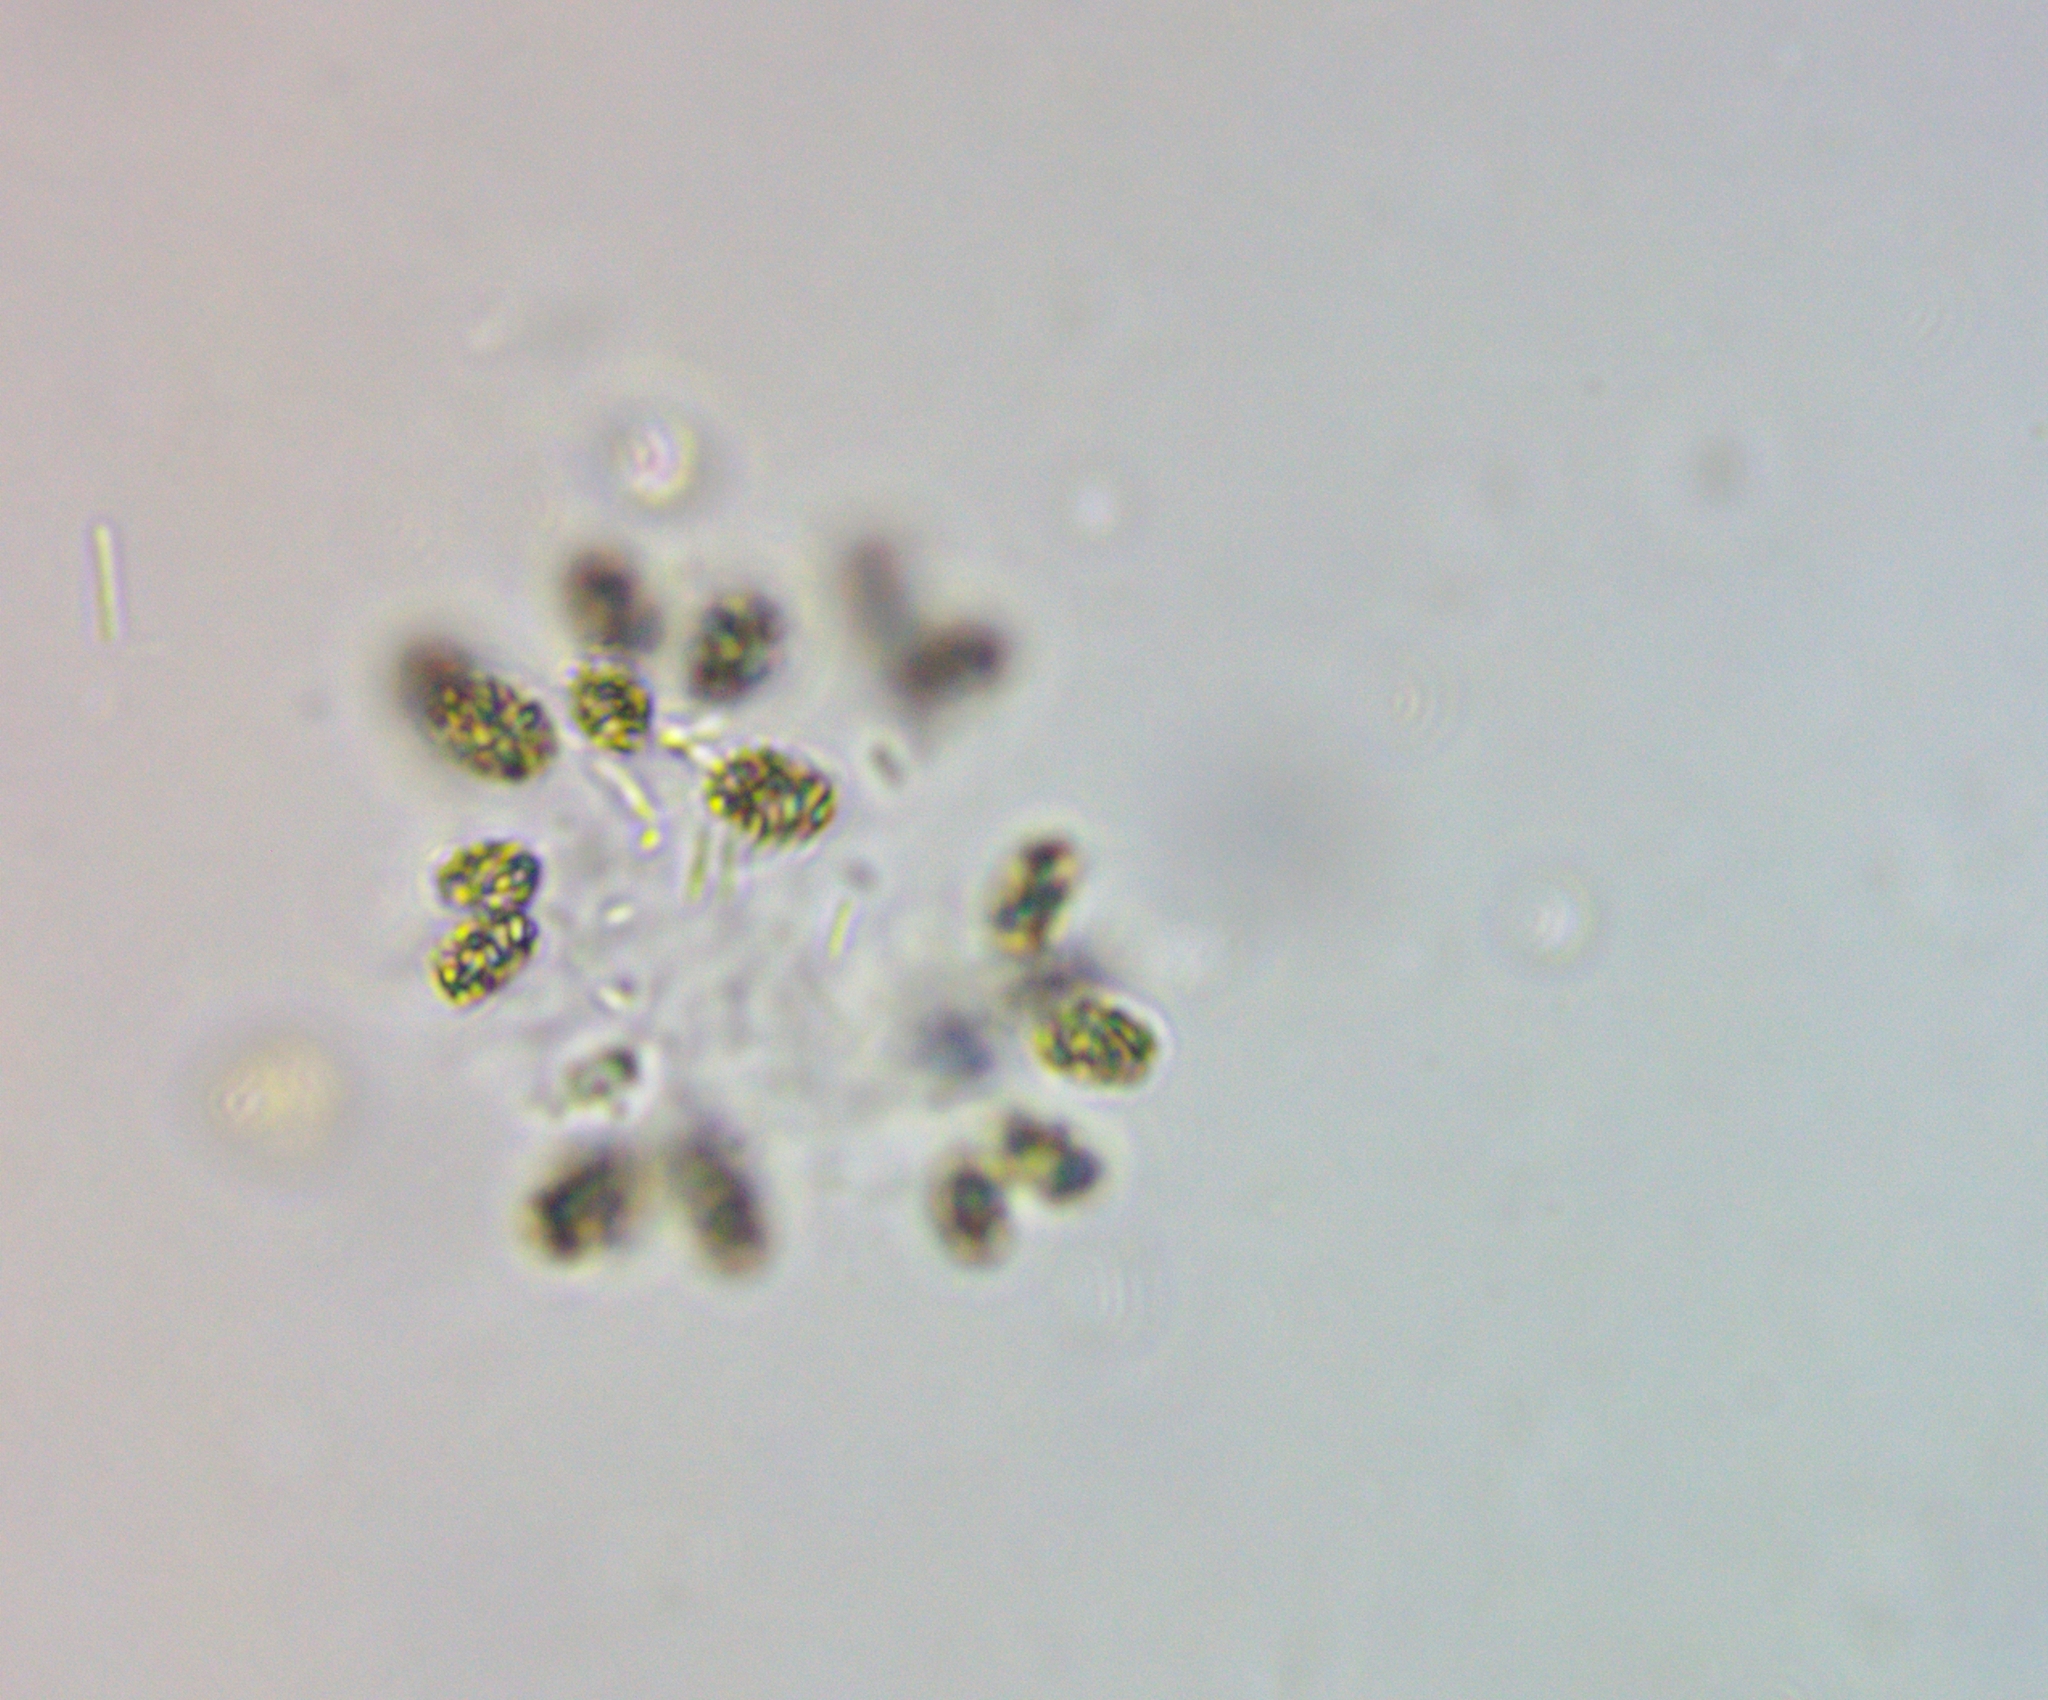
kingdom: Bacteria
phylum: Cyanobacteria
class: Cyanobacteriia
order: Synechococcales
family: Coelosphaeriaceae
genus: Woronichinia
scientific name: Woronichinia naegeliana
